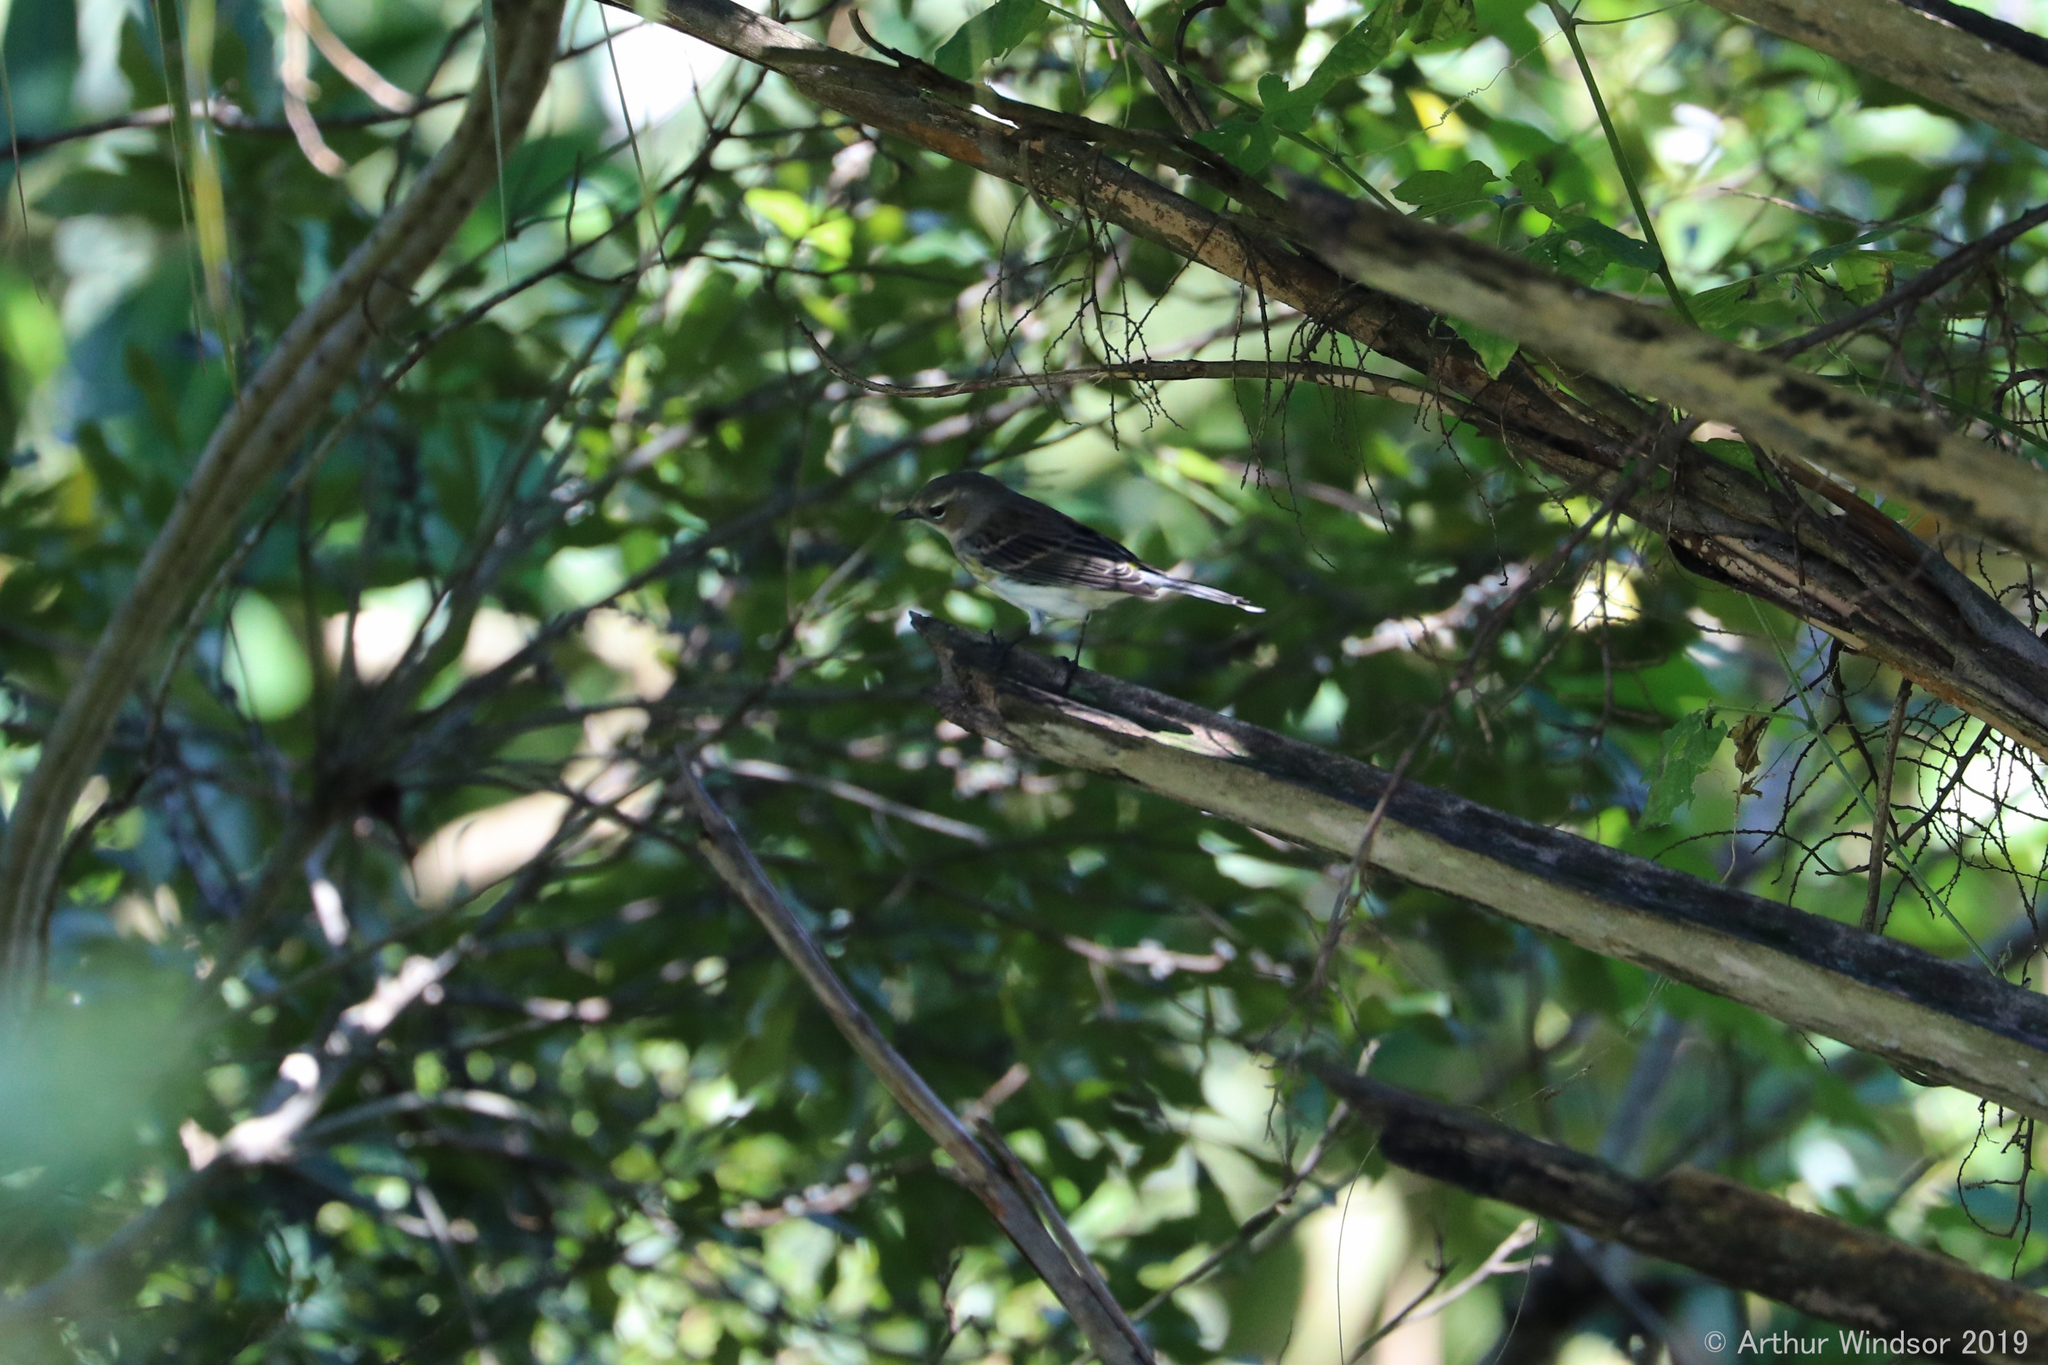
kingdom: Animalia
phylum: Chordata
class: Aves
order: Passeriformes
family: Parulidae
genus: Setophaga
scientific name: Setophaga coronata
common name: Myrtle warbler
